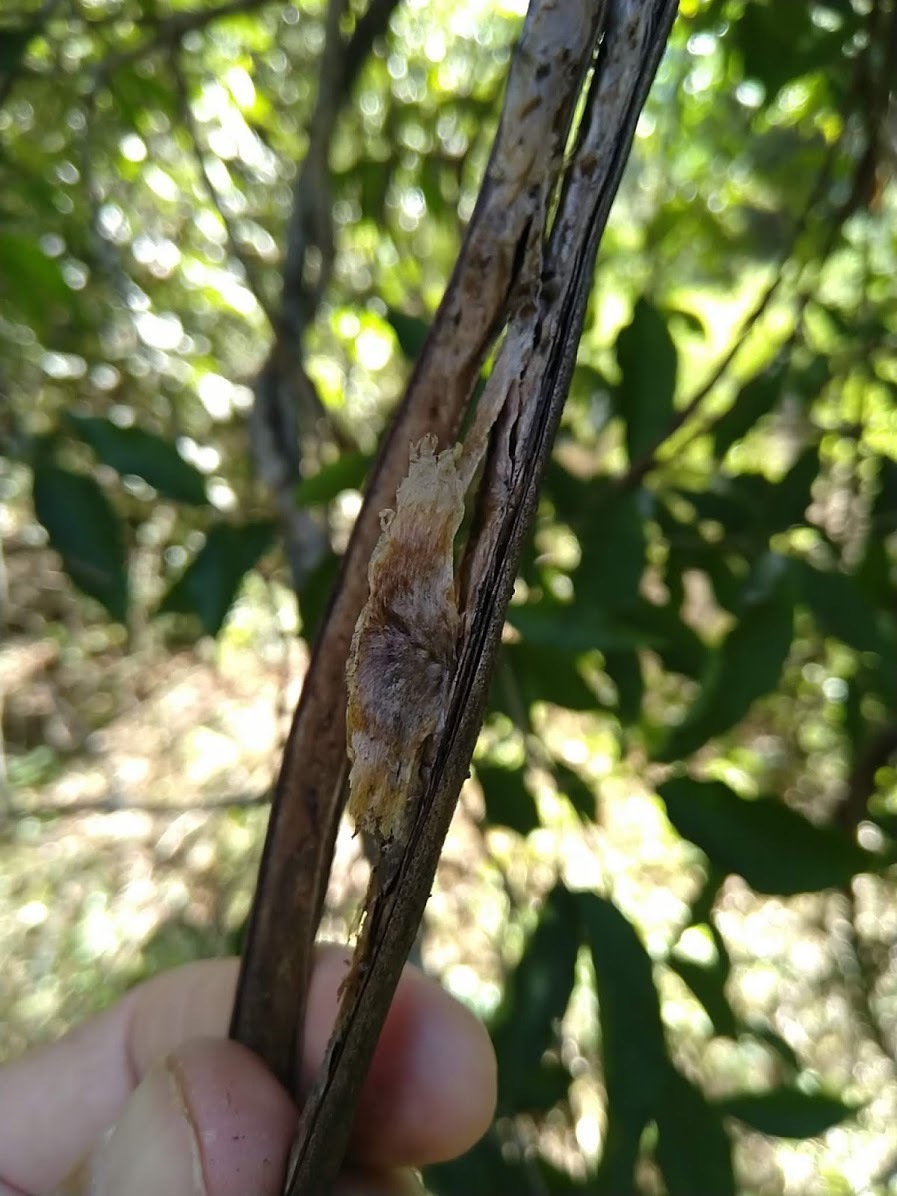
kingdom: Plantae
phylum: Tracheophyta
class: Magnoliopsida
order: Lamiales
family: Bignoniaceae
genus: Dolichandra
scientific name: Dolichandra unguis-cati
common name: Catclaw vine
